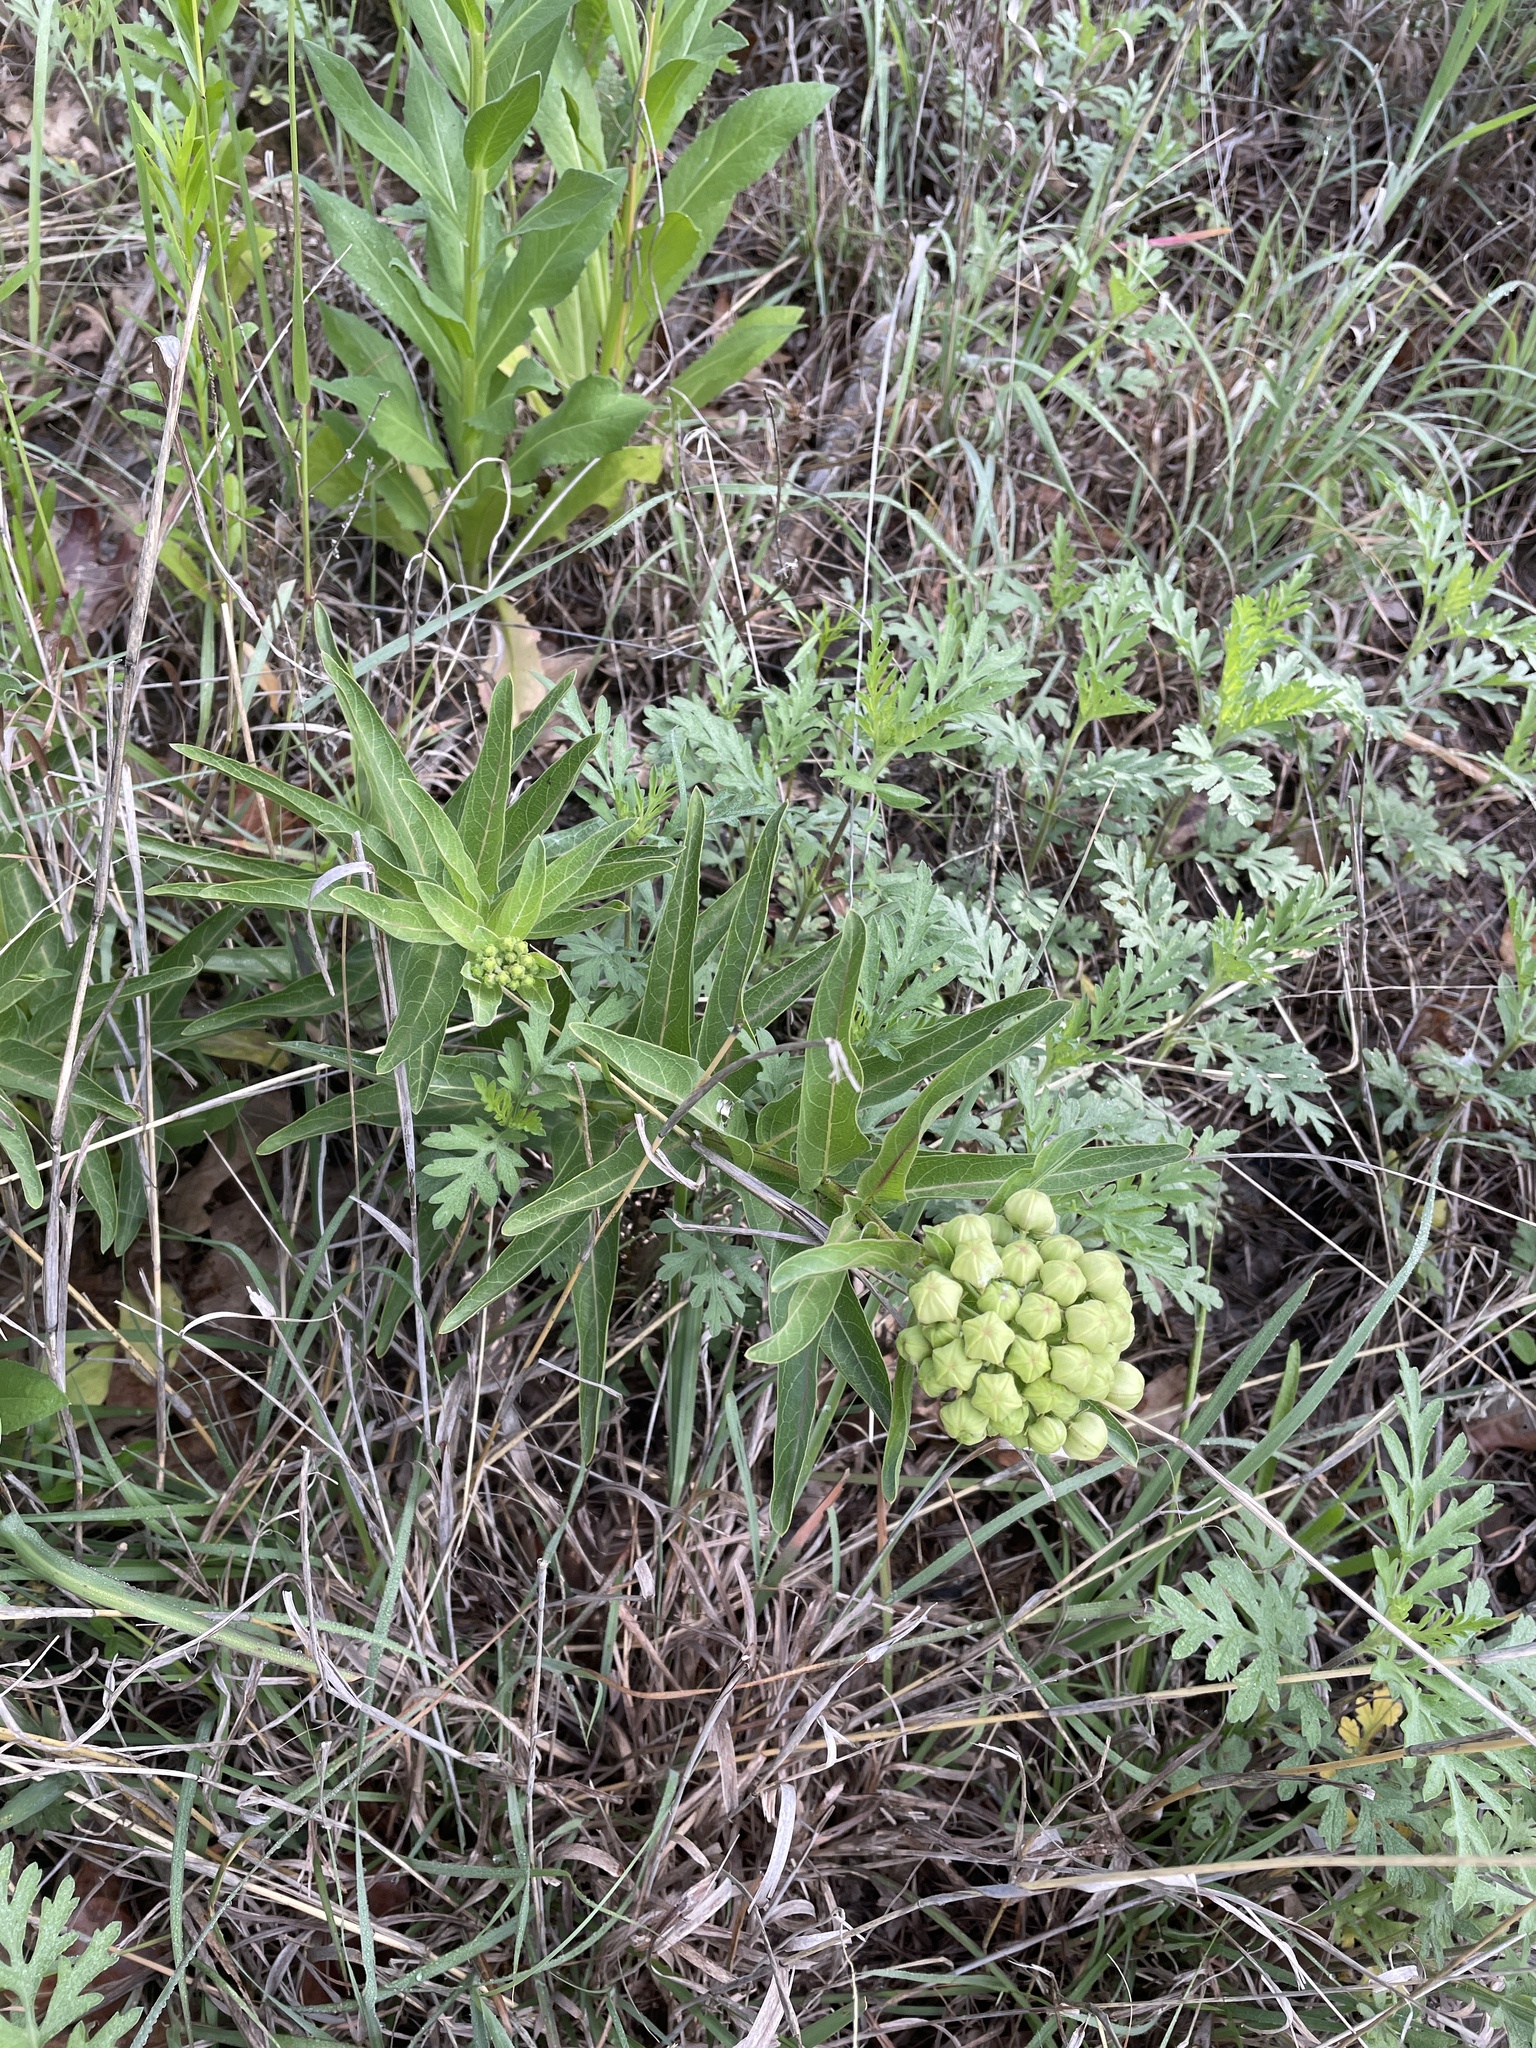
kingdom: Plantae
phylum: Tracheophyta
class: Magnoliopsida
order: Gentianales
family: Apocynaceae
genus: Asclepias
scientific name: Asclepias viridis
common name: Antelope-horns
